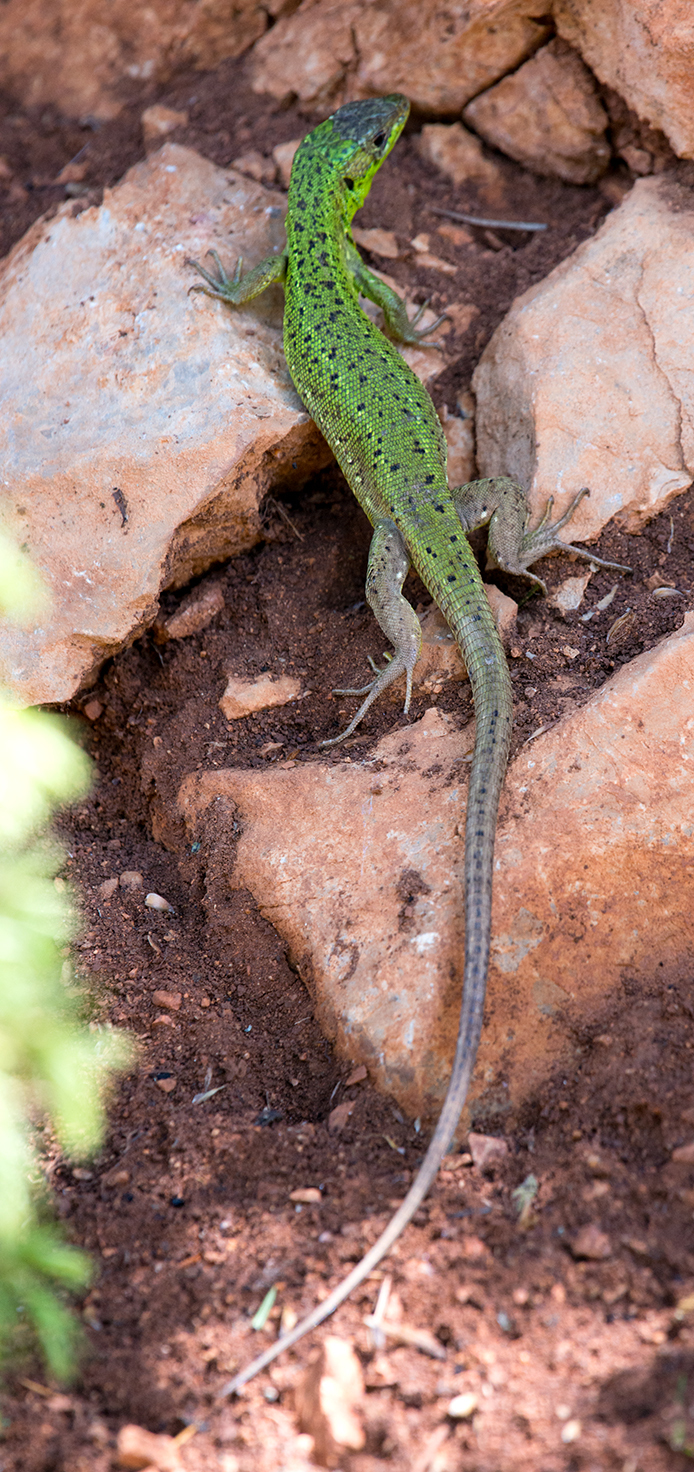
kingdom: Animalia
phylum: Chordata
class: Squamata
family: Lacertidae
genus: Lacerta
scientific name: Lacerta trilineata
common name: Balkan green lizard
